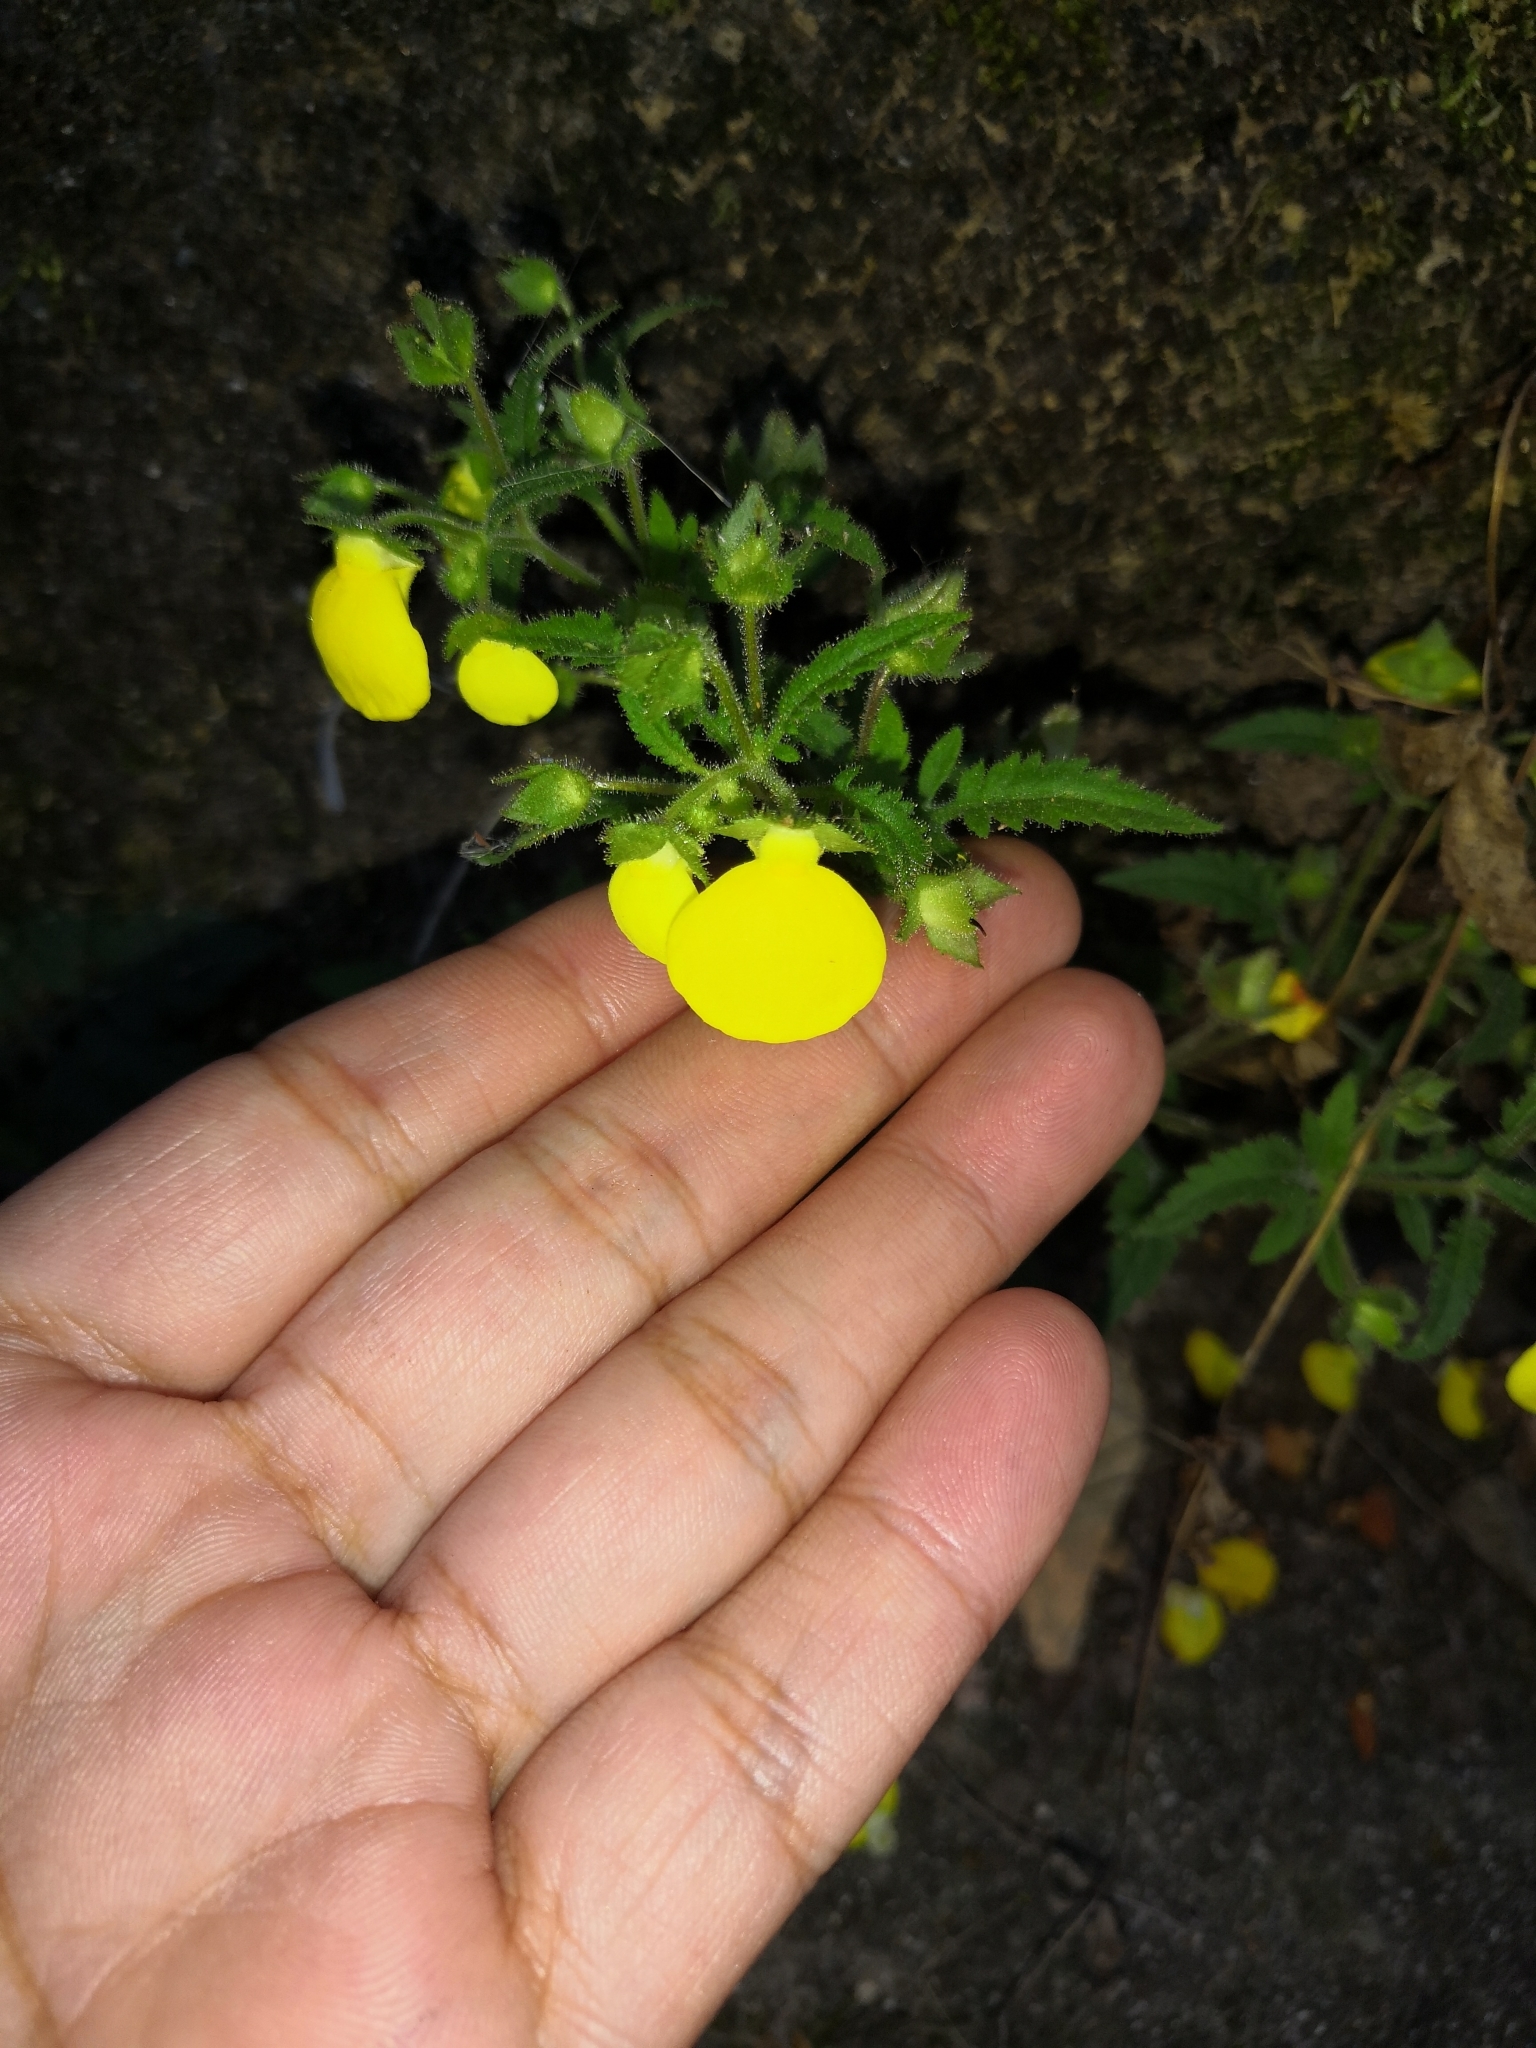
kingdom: Plantae
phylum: Tracheophyta
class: Magnoliopsida
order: Lamiales
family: Calceolariaceae
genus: Calceolaria
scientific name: Calceolaria tripartita
